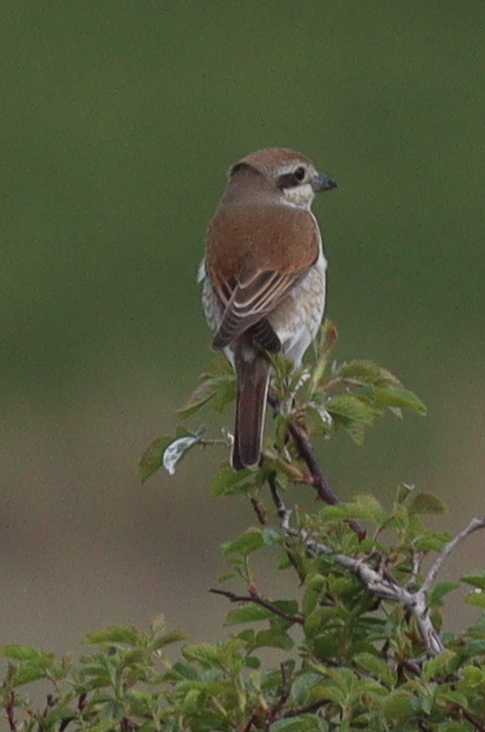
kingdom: Animalia
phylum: Chordata
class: Aves
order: Passeriformes
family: Laniidae
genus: Lanius
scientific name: Lanius collurio
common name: Red-backed shrike
